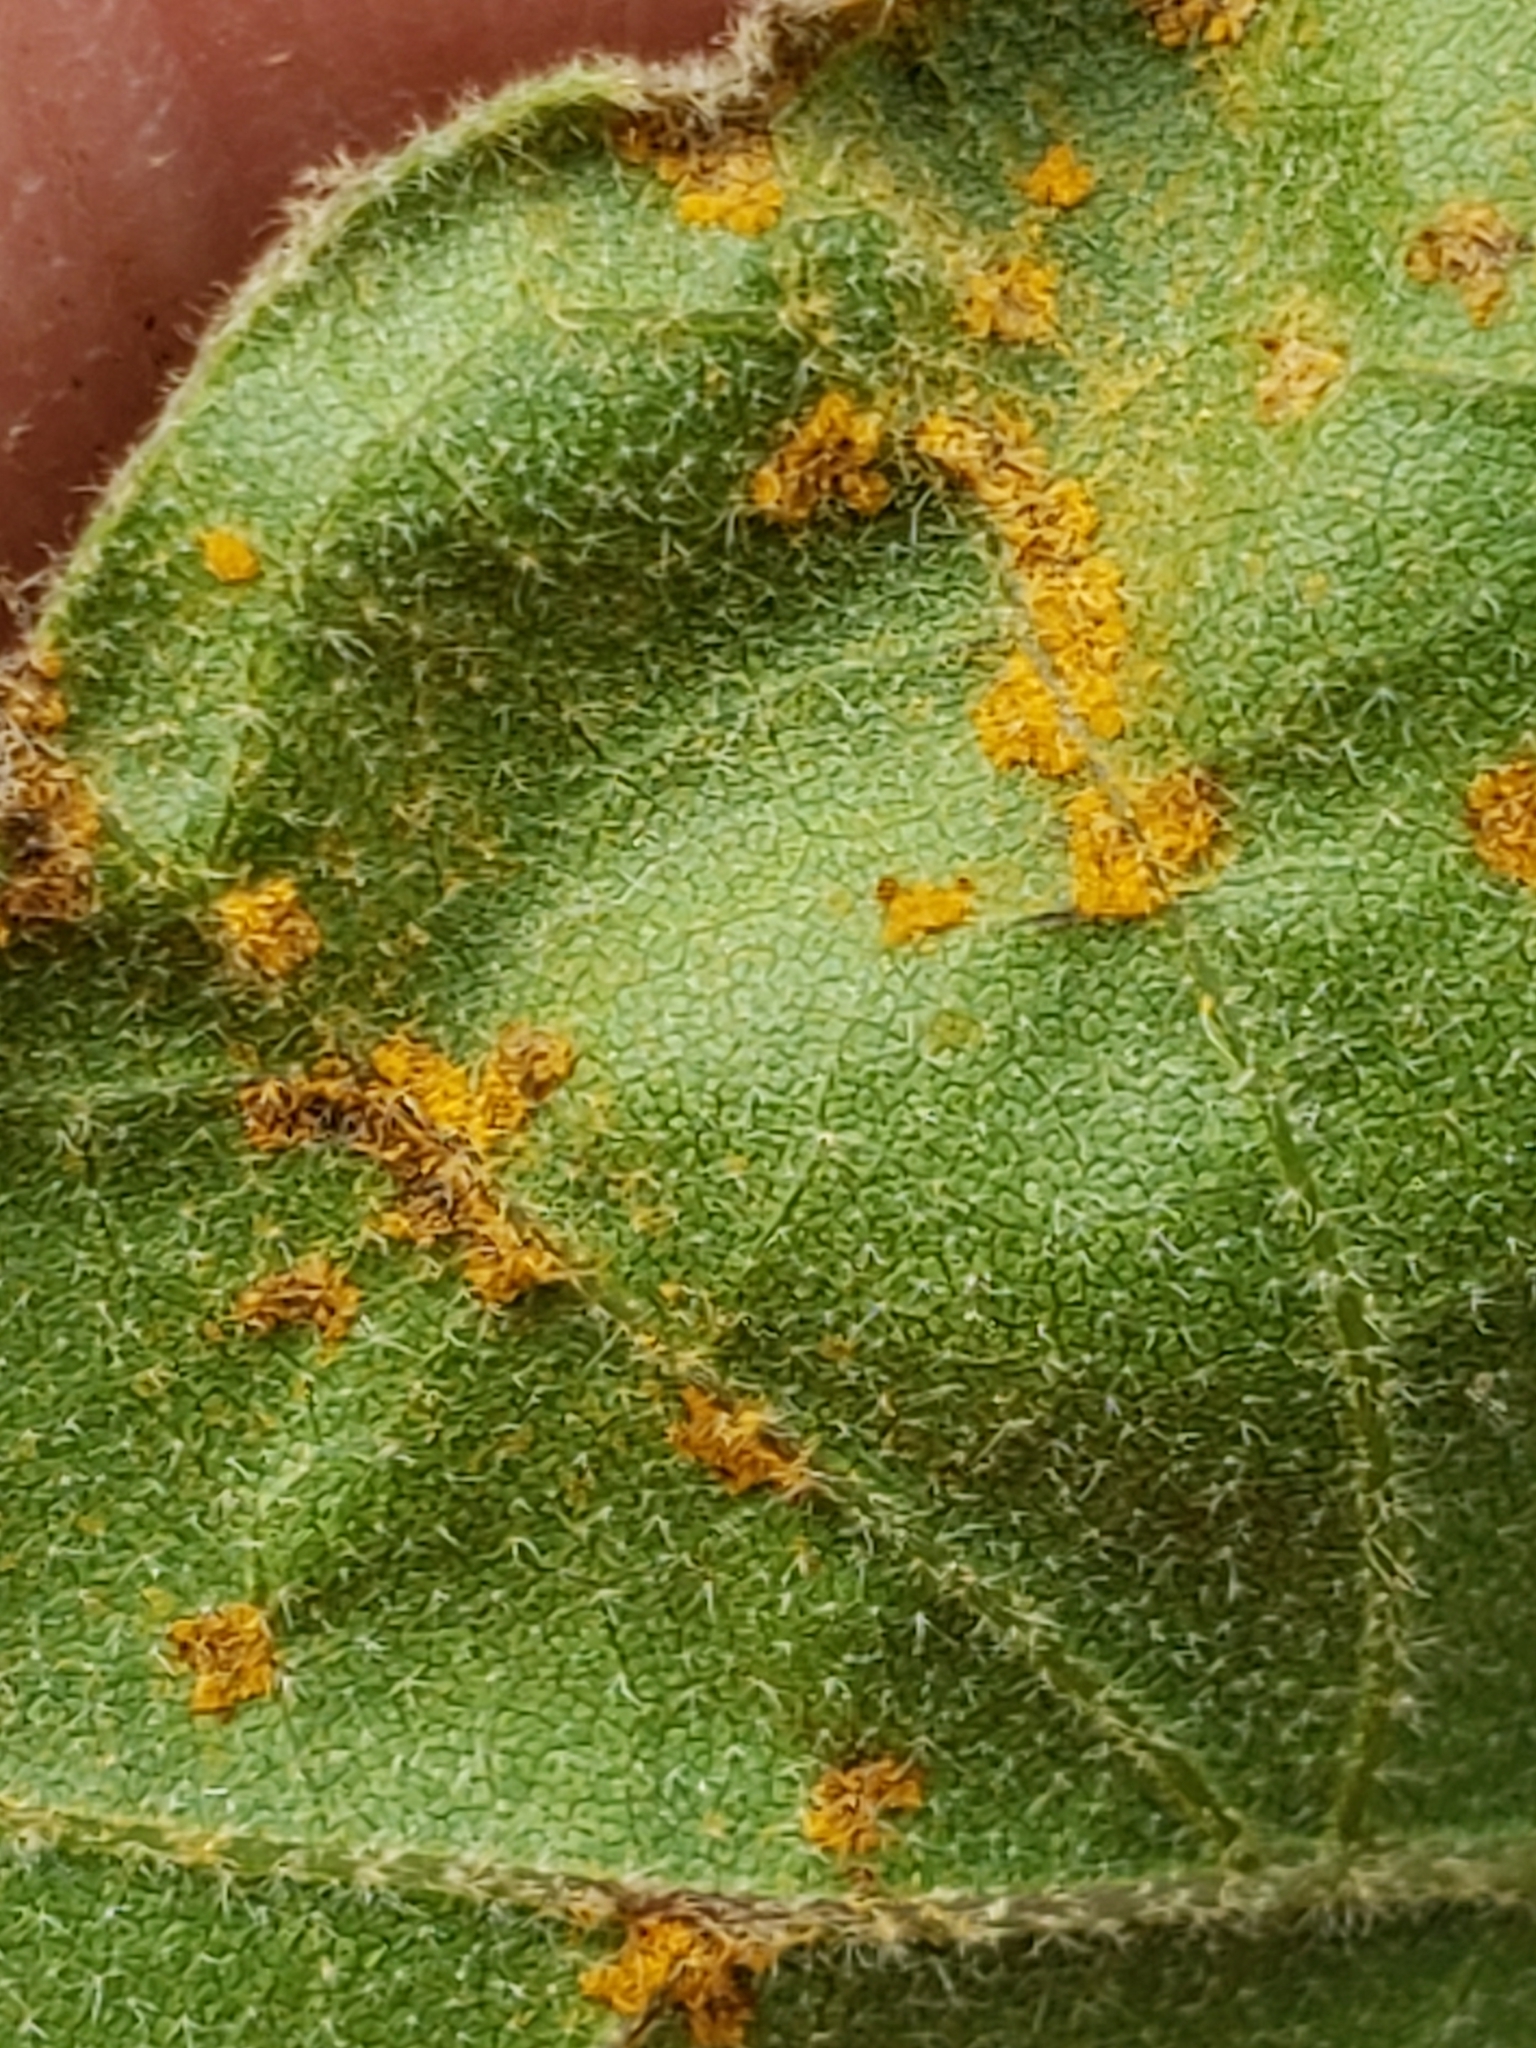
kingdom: Fungi
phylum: Basidiomycota
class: Pucciniomycetes
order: Pucciniales
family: Cronartiaceae
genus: Cronartium
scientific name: Cronartium quercuum
